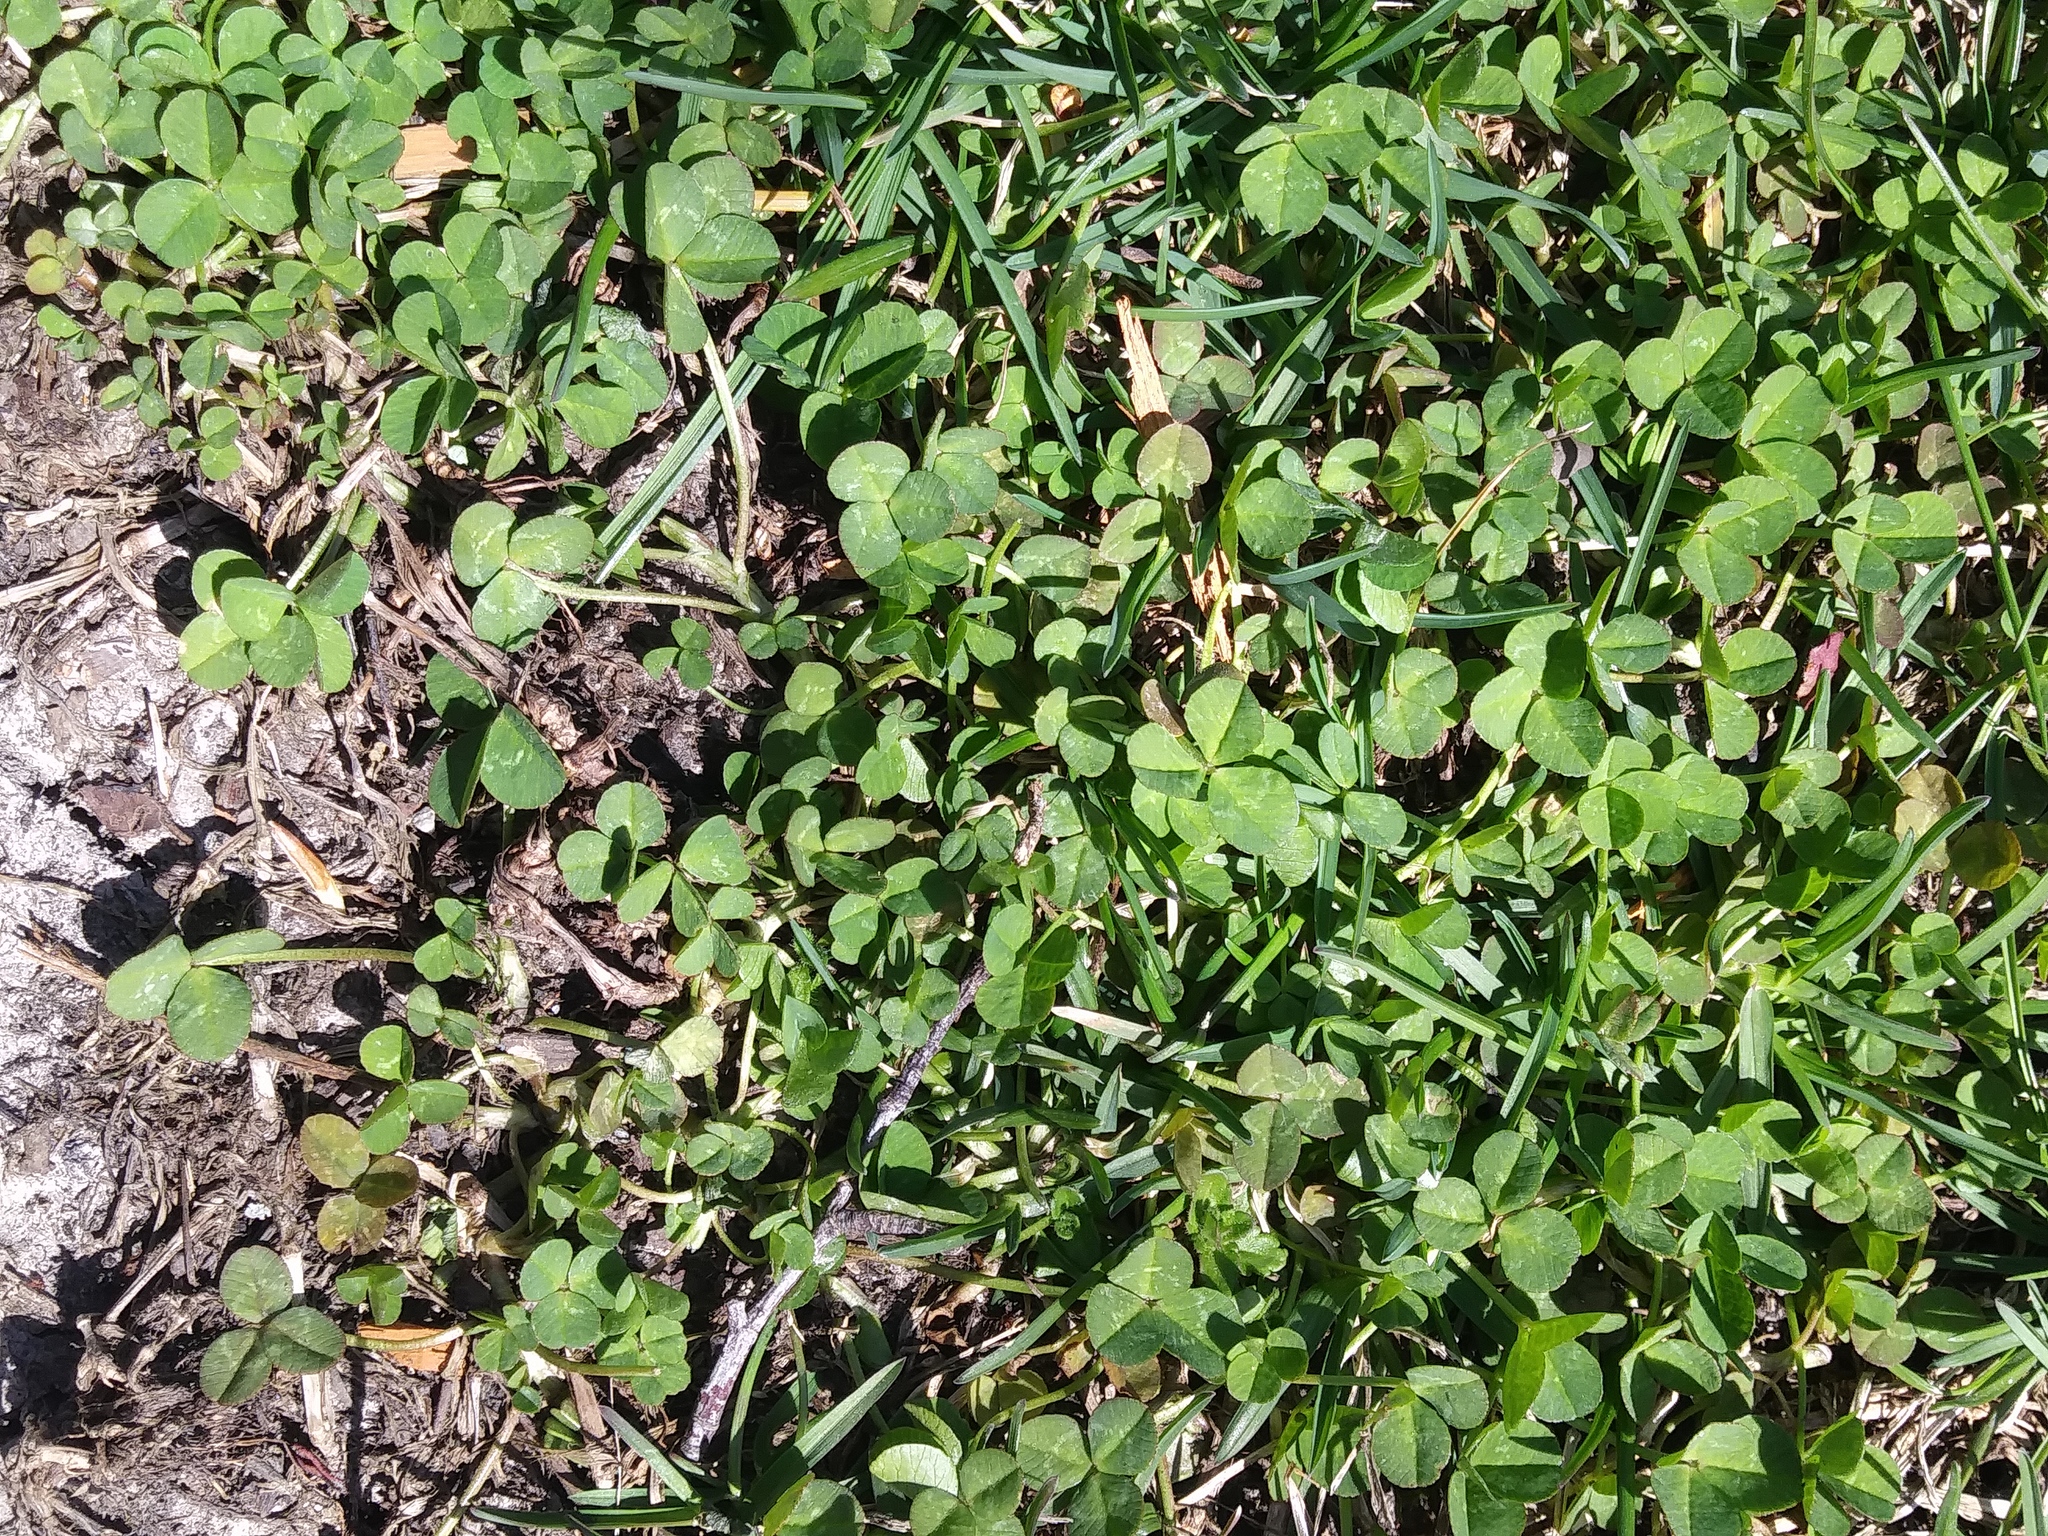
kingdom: Plantae
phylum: Tracheophyta
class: Magnoliopsida
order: Fabales
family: Fabaceae
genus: Trifolium
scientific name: Trifolium repens
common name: White clover
